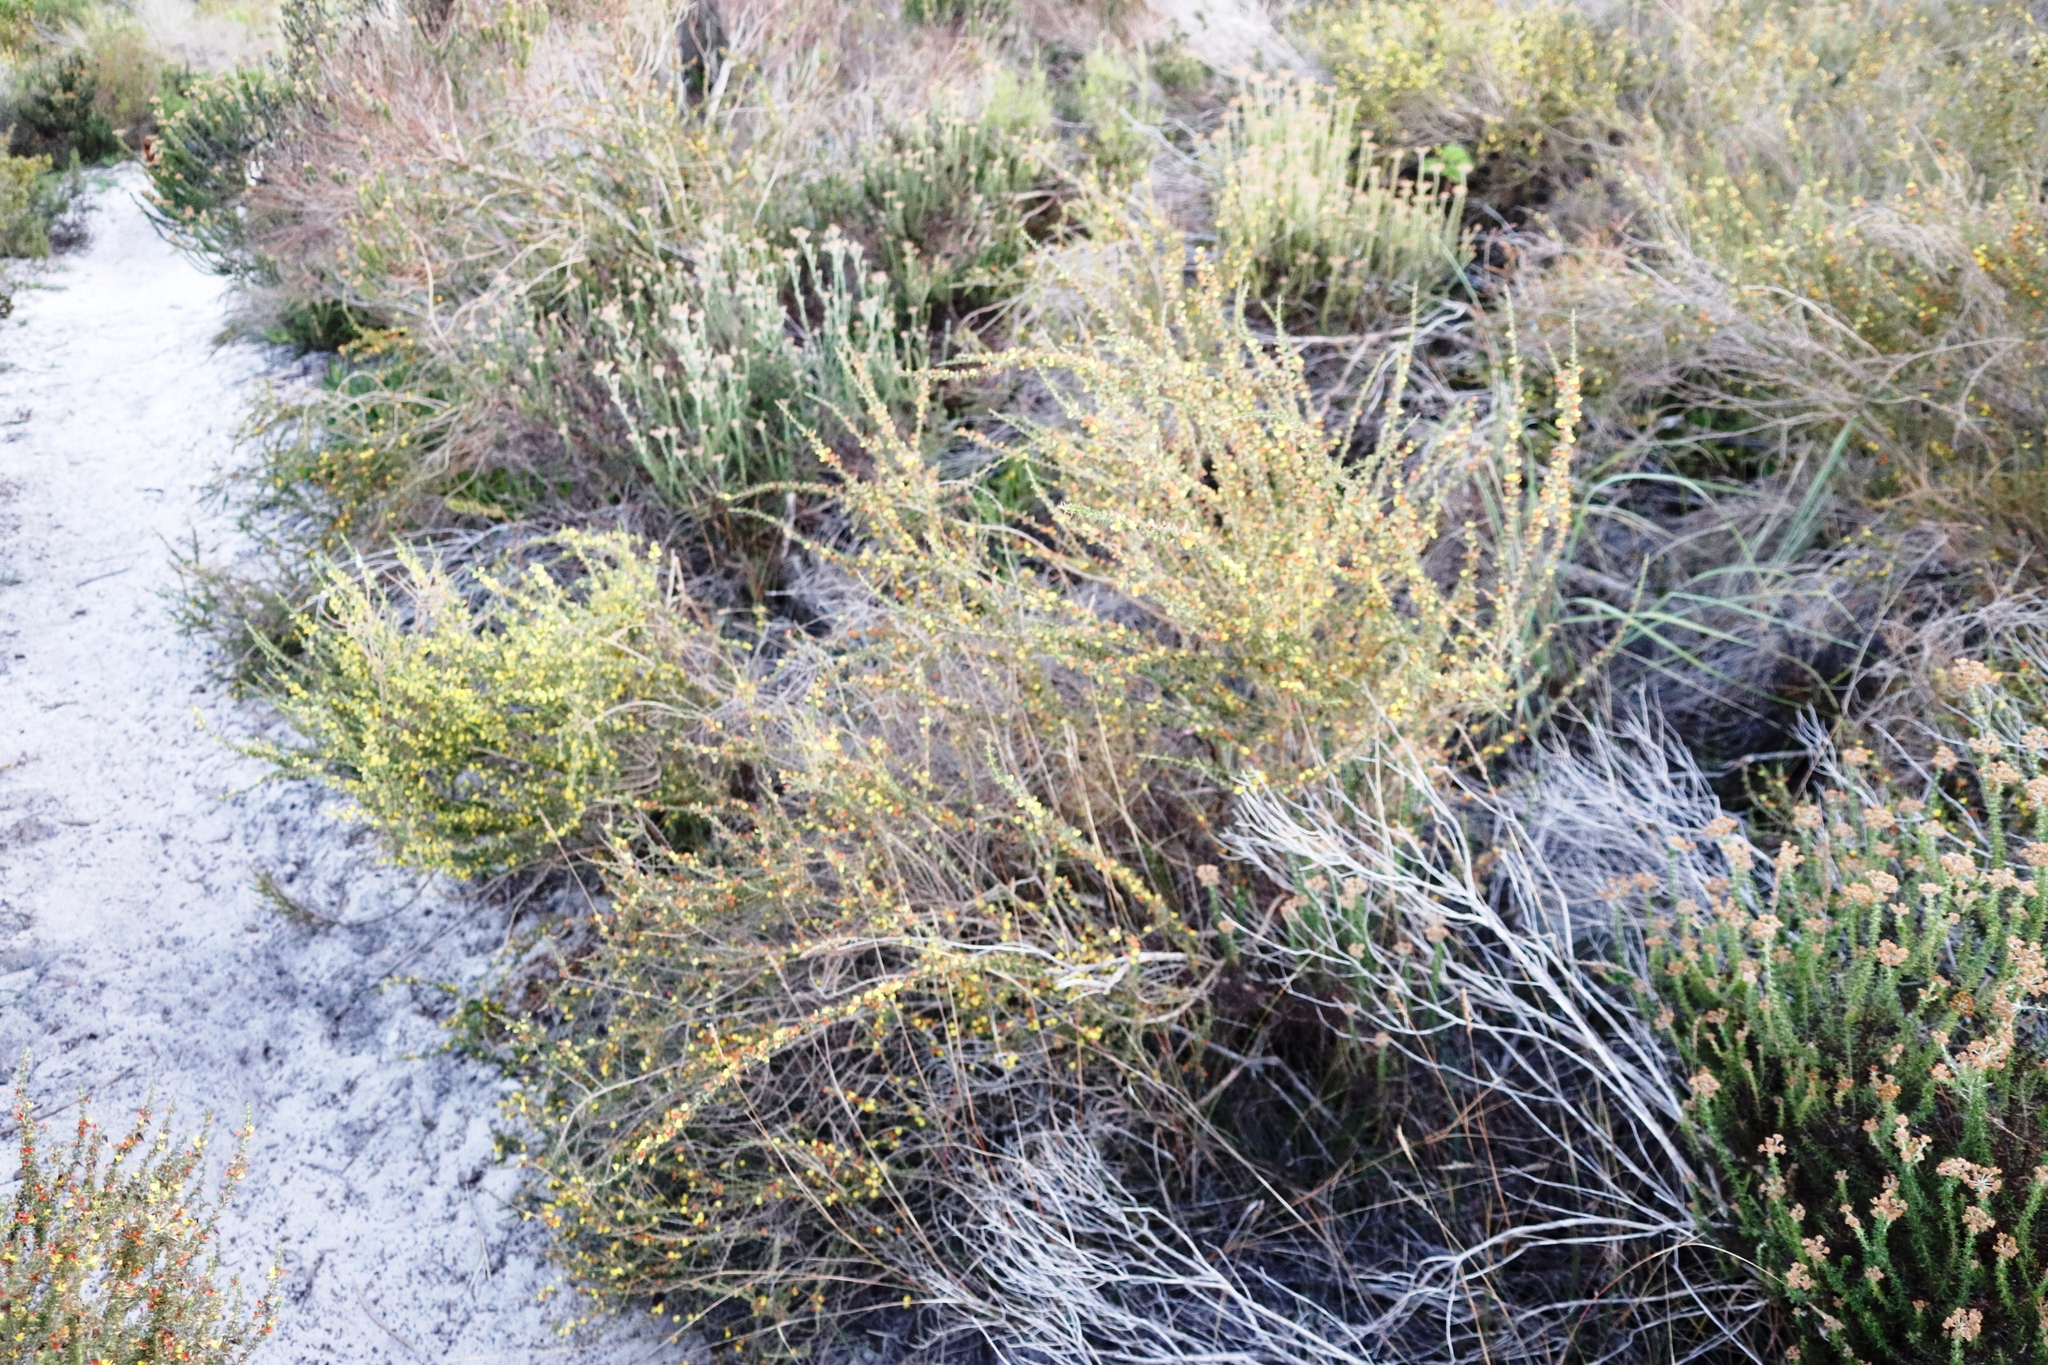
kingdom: Plantae
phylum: Tracheophyta
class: Magnoliopsida
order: Fabales
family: Fabaceae
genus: Aspalathus
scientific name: Aspalathus spinosa
